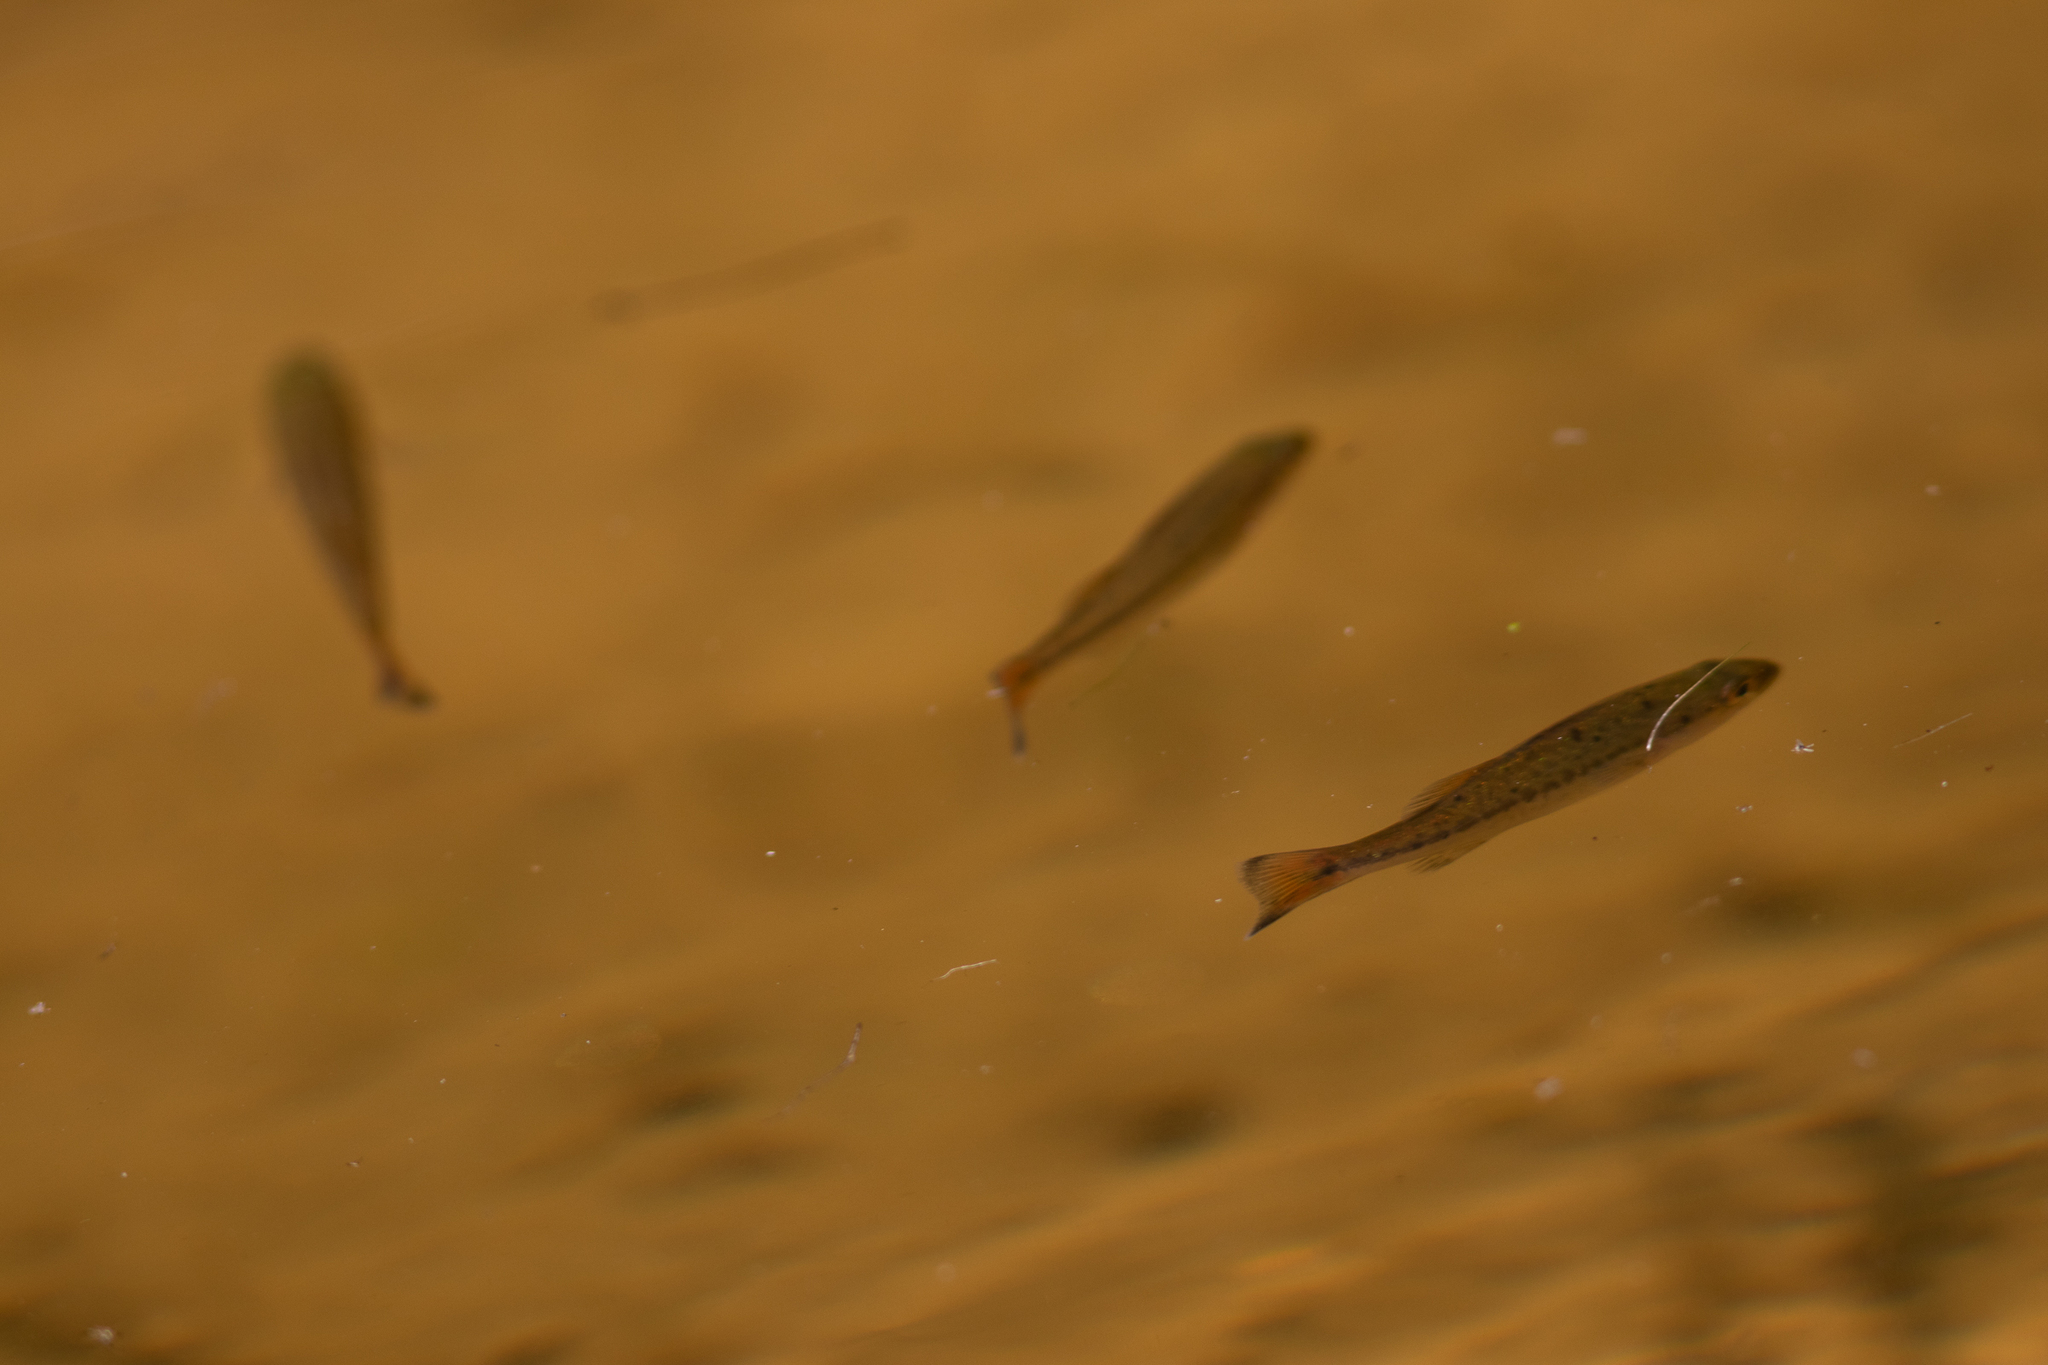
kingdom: Animalia
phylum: Chordata
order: Perciformes
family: Centrarchidae
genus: Micropterus
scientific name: Micropterus
